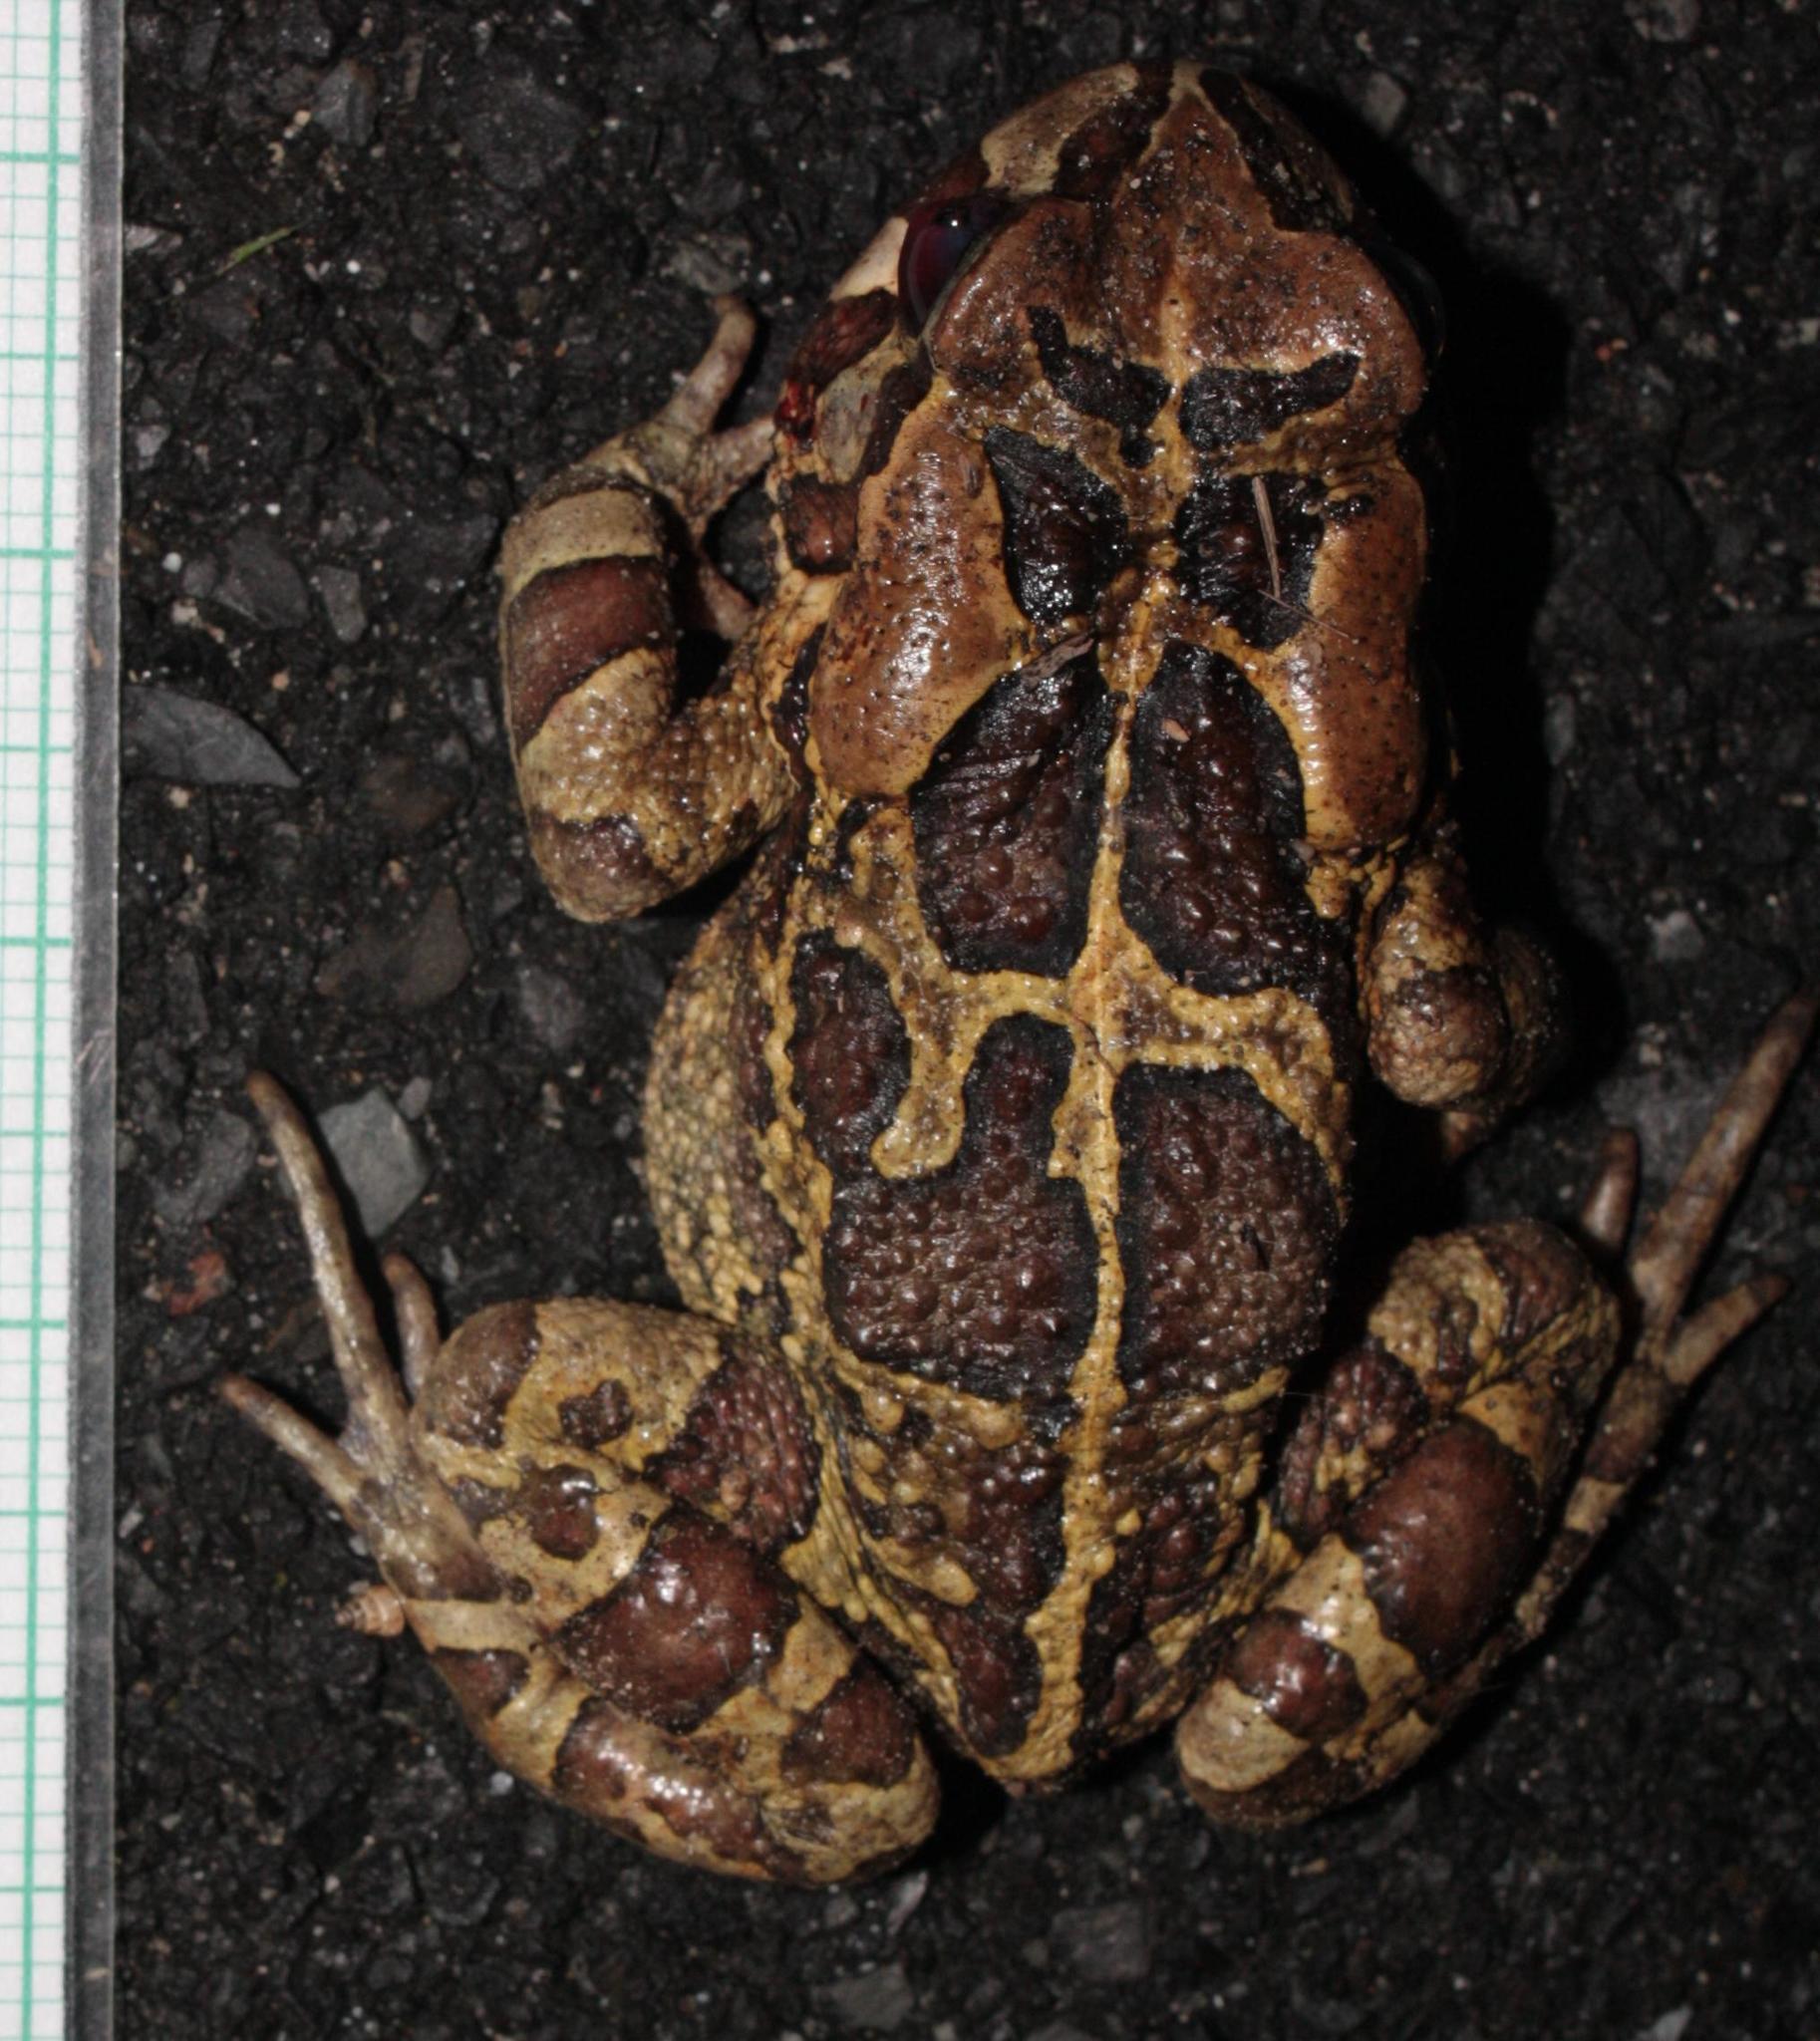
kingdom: Animalia
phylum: Chordata
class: Amphibia
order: Anura
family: Bufonidae
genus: Sclerophrys
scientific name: Sclerophrys pantherina
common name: Panther toad
